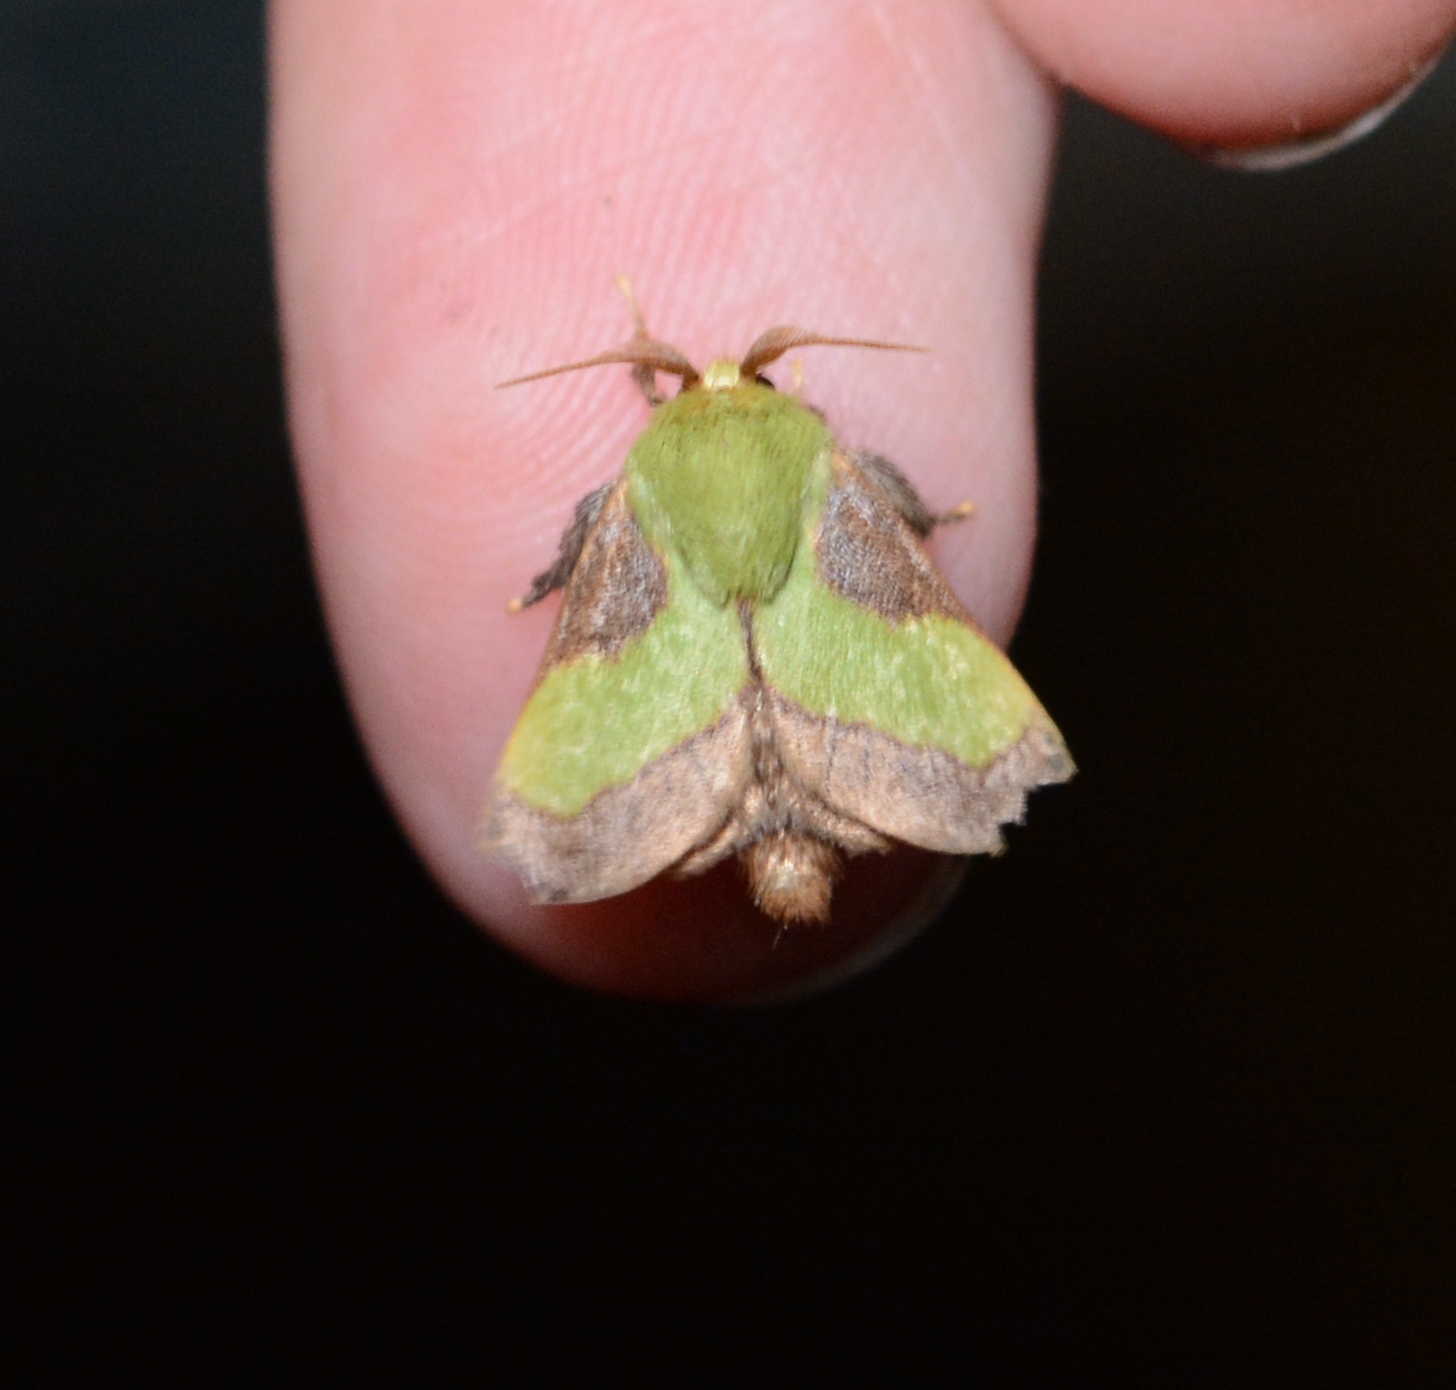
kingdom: Animalia
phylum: Arthropoda
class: Insecta
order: Lepidoptera
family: Limacodidae
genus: Parasa
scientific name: Parasa chloris
